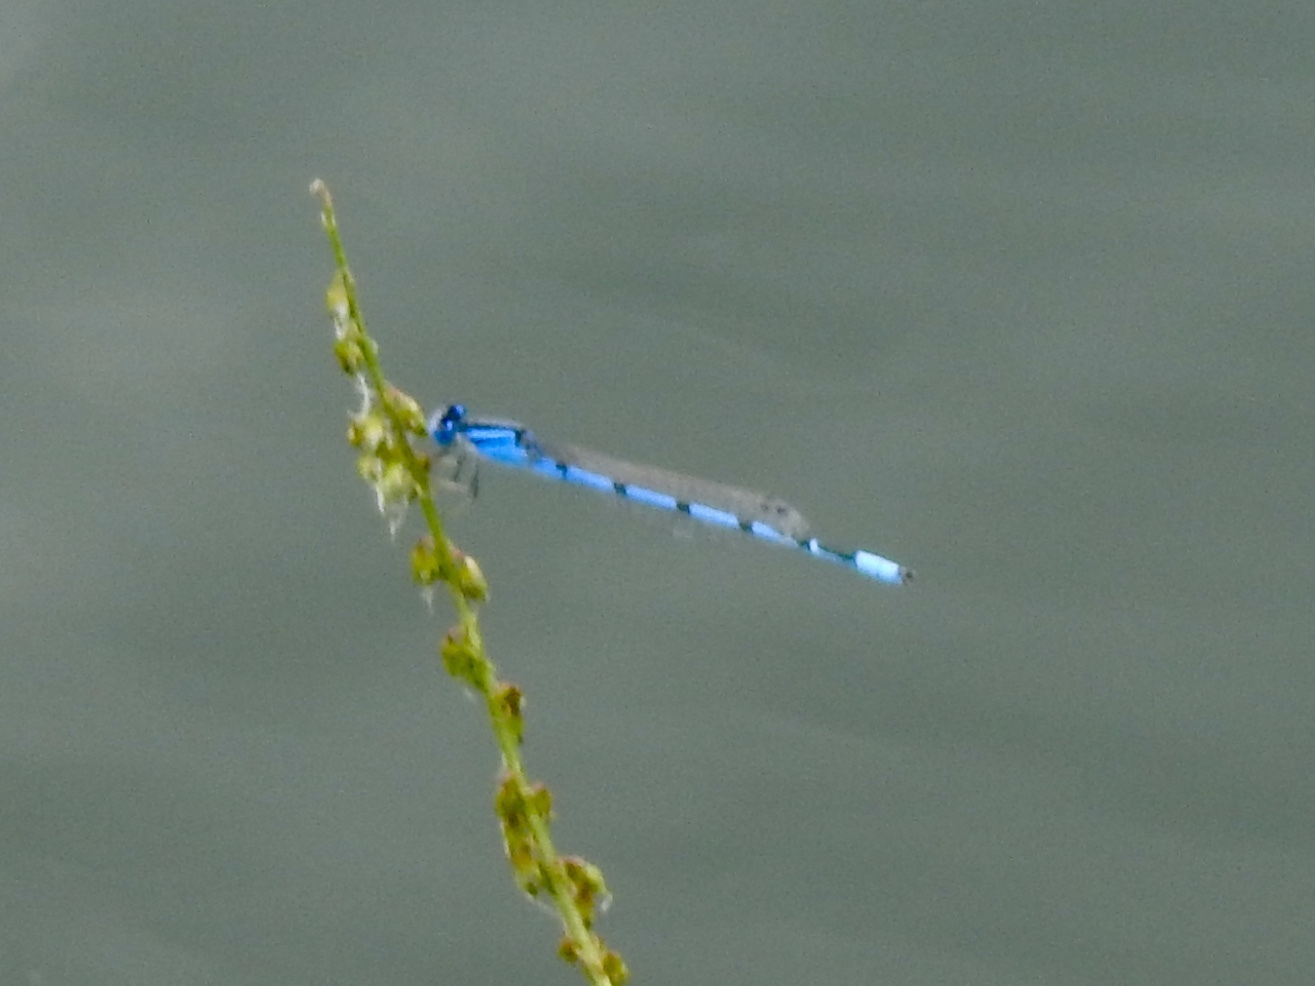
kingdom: Animalia
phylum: Arthropoda
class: Insecta
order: Odonata
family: Coenagrionidae
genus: Enallagma
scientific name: Enallagma civile
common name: Damselfly
